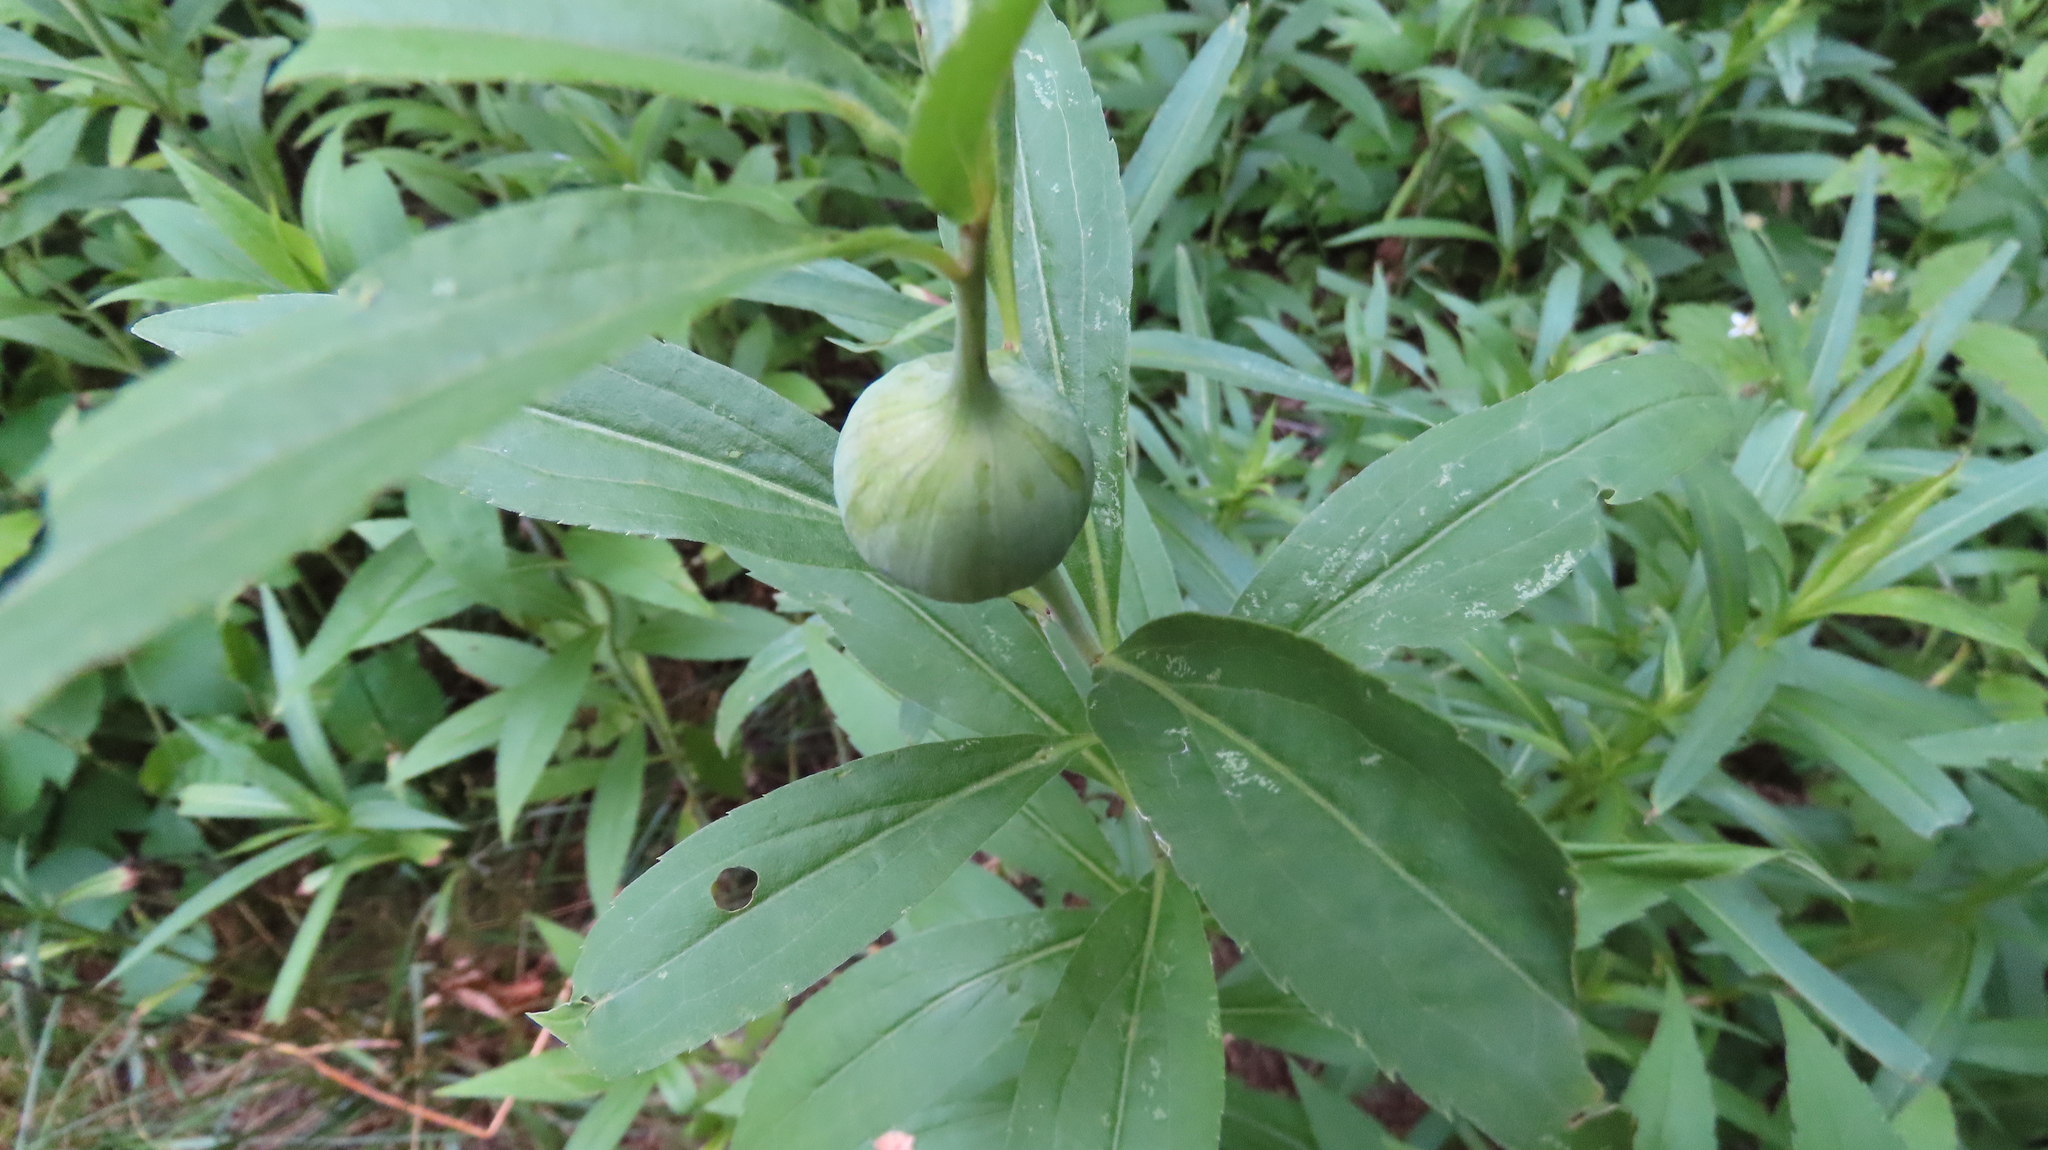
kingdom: Animalia
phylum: Arthropoda
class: Insecta
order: Diptera
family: Tephritidae
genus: Eurosta
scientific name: Eurosta solidaginis
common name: Goldenrod gall fly
